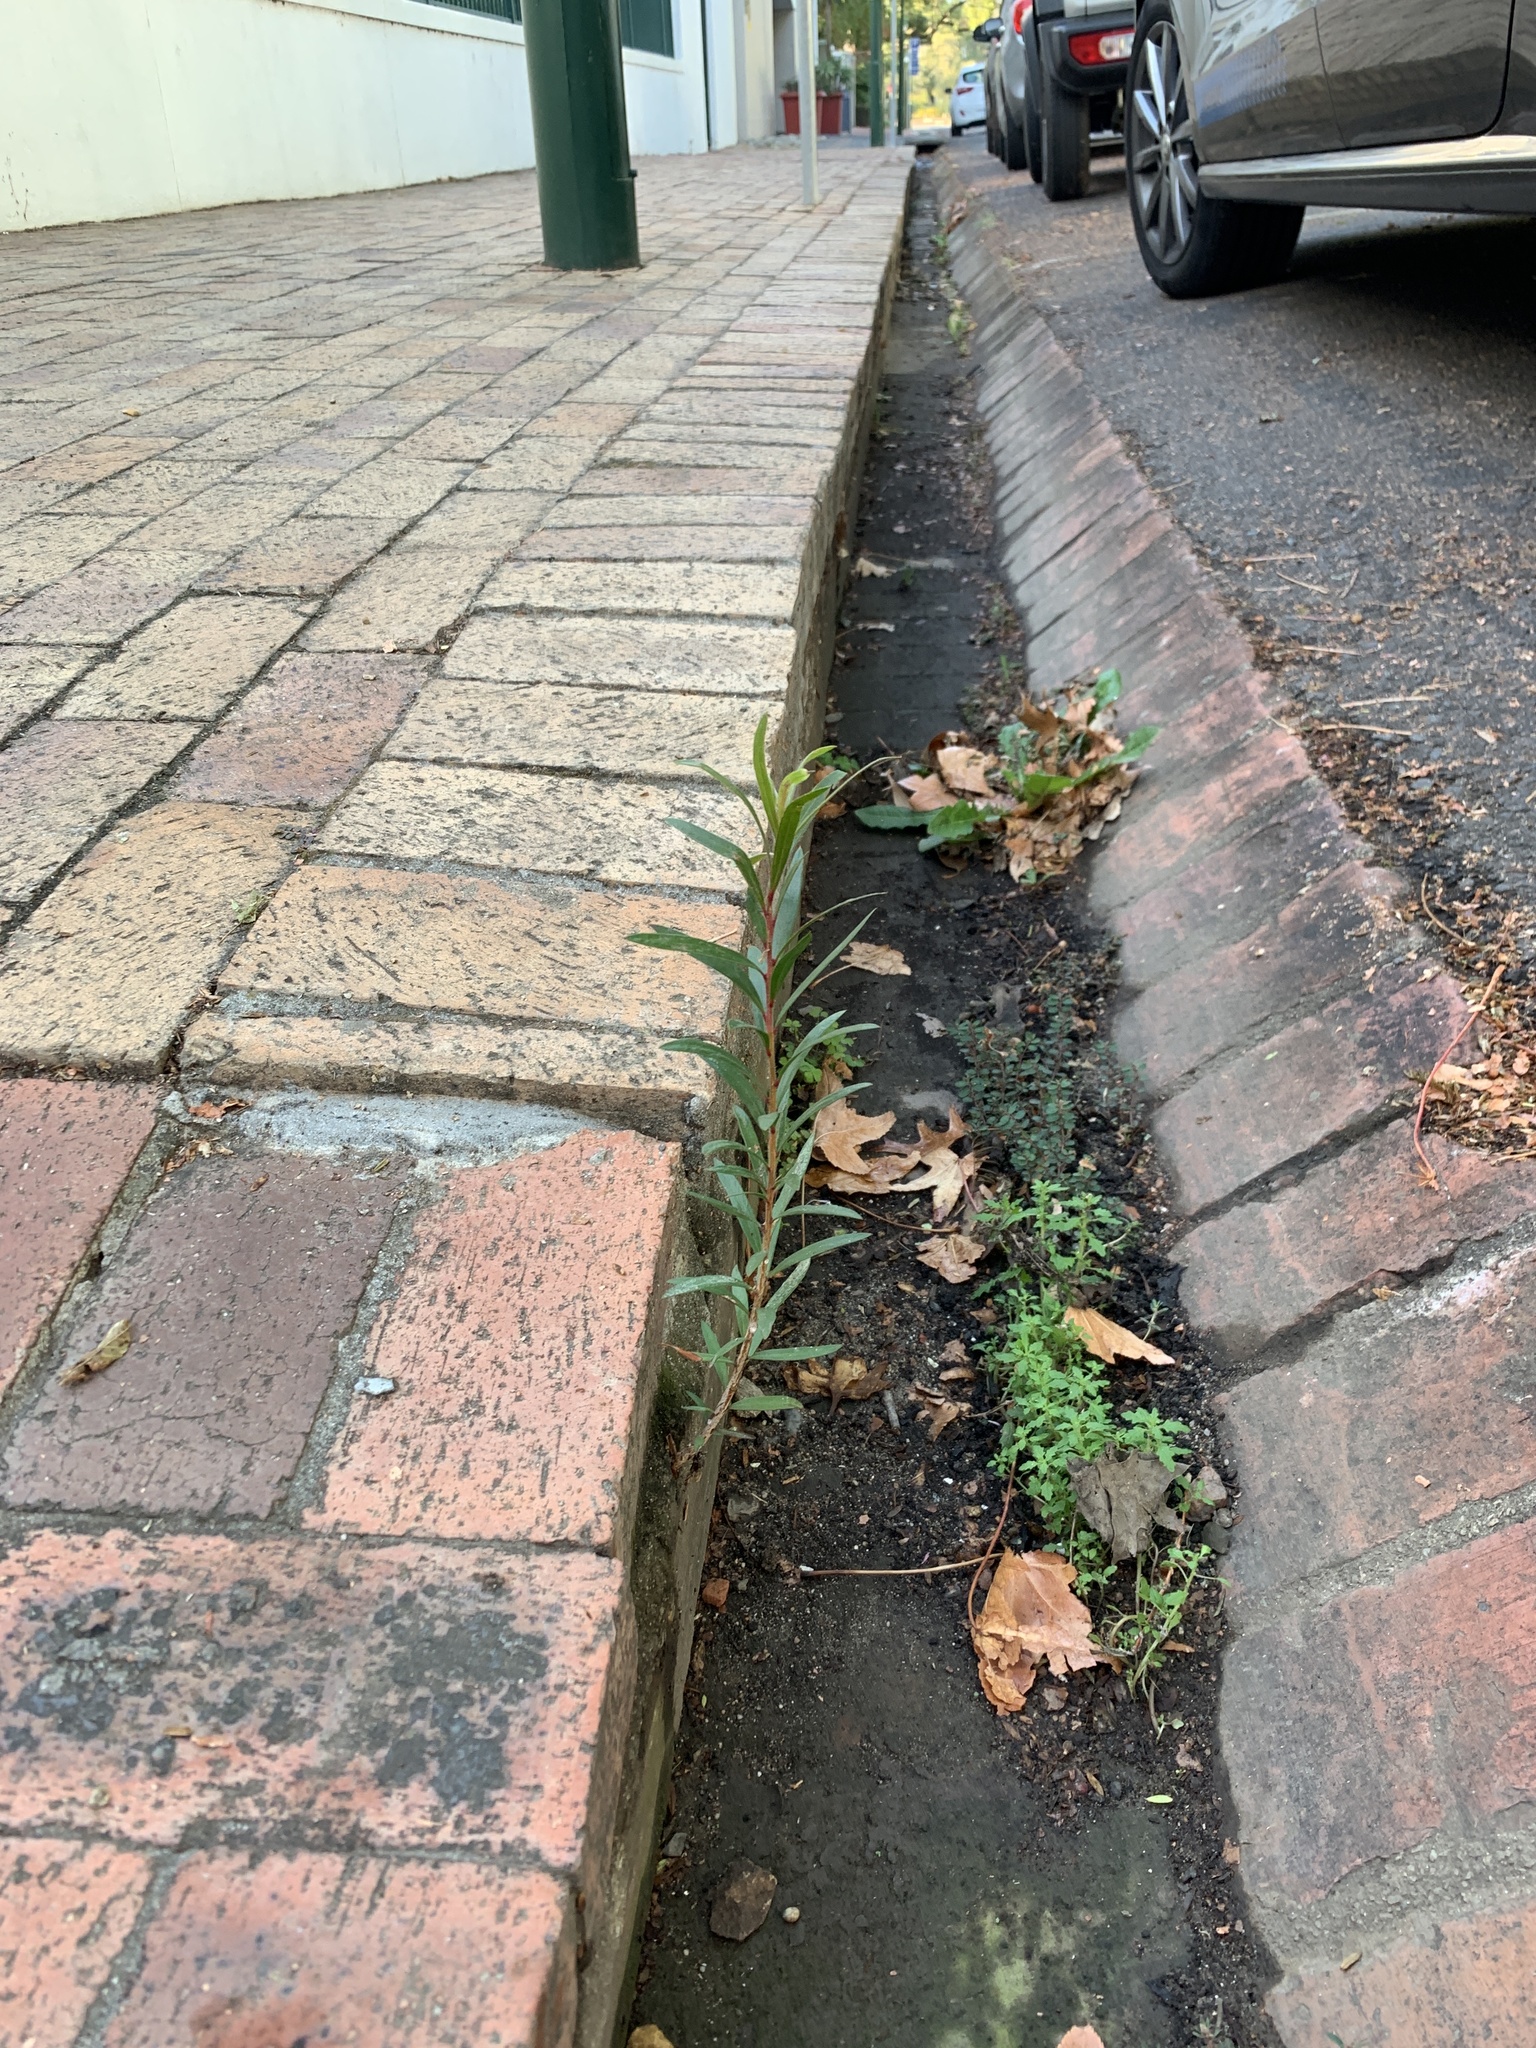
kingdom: Plantae
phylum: Tracheophyta
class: Magnoliopsida
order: Myrtales
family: Myrtaceae
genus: Callistemon
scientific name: Callistemon viminalis
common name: Drooping bottlebrush
